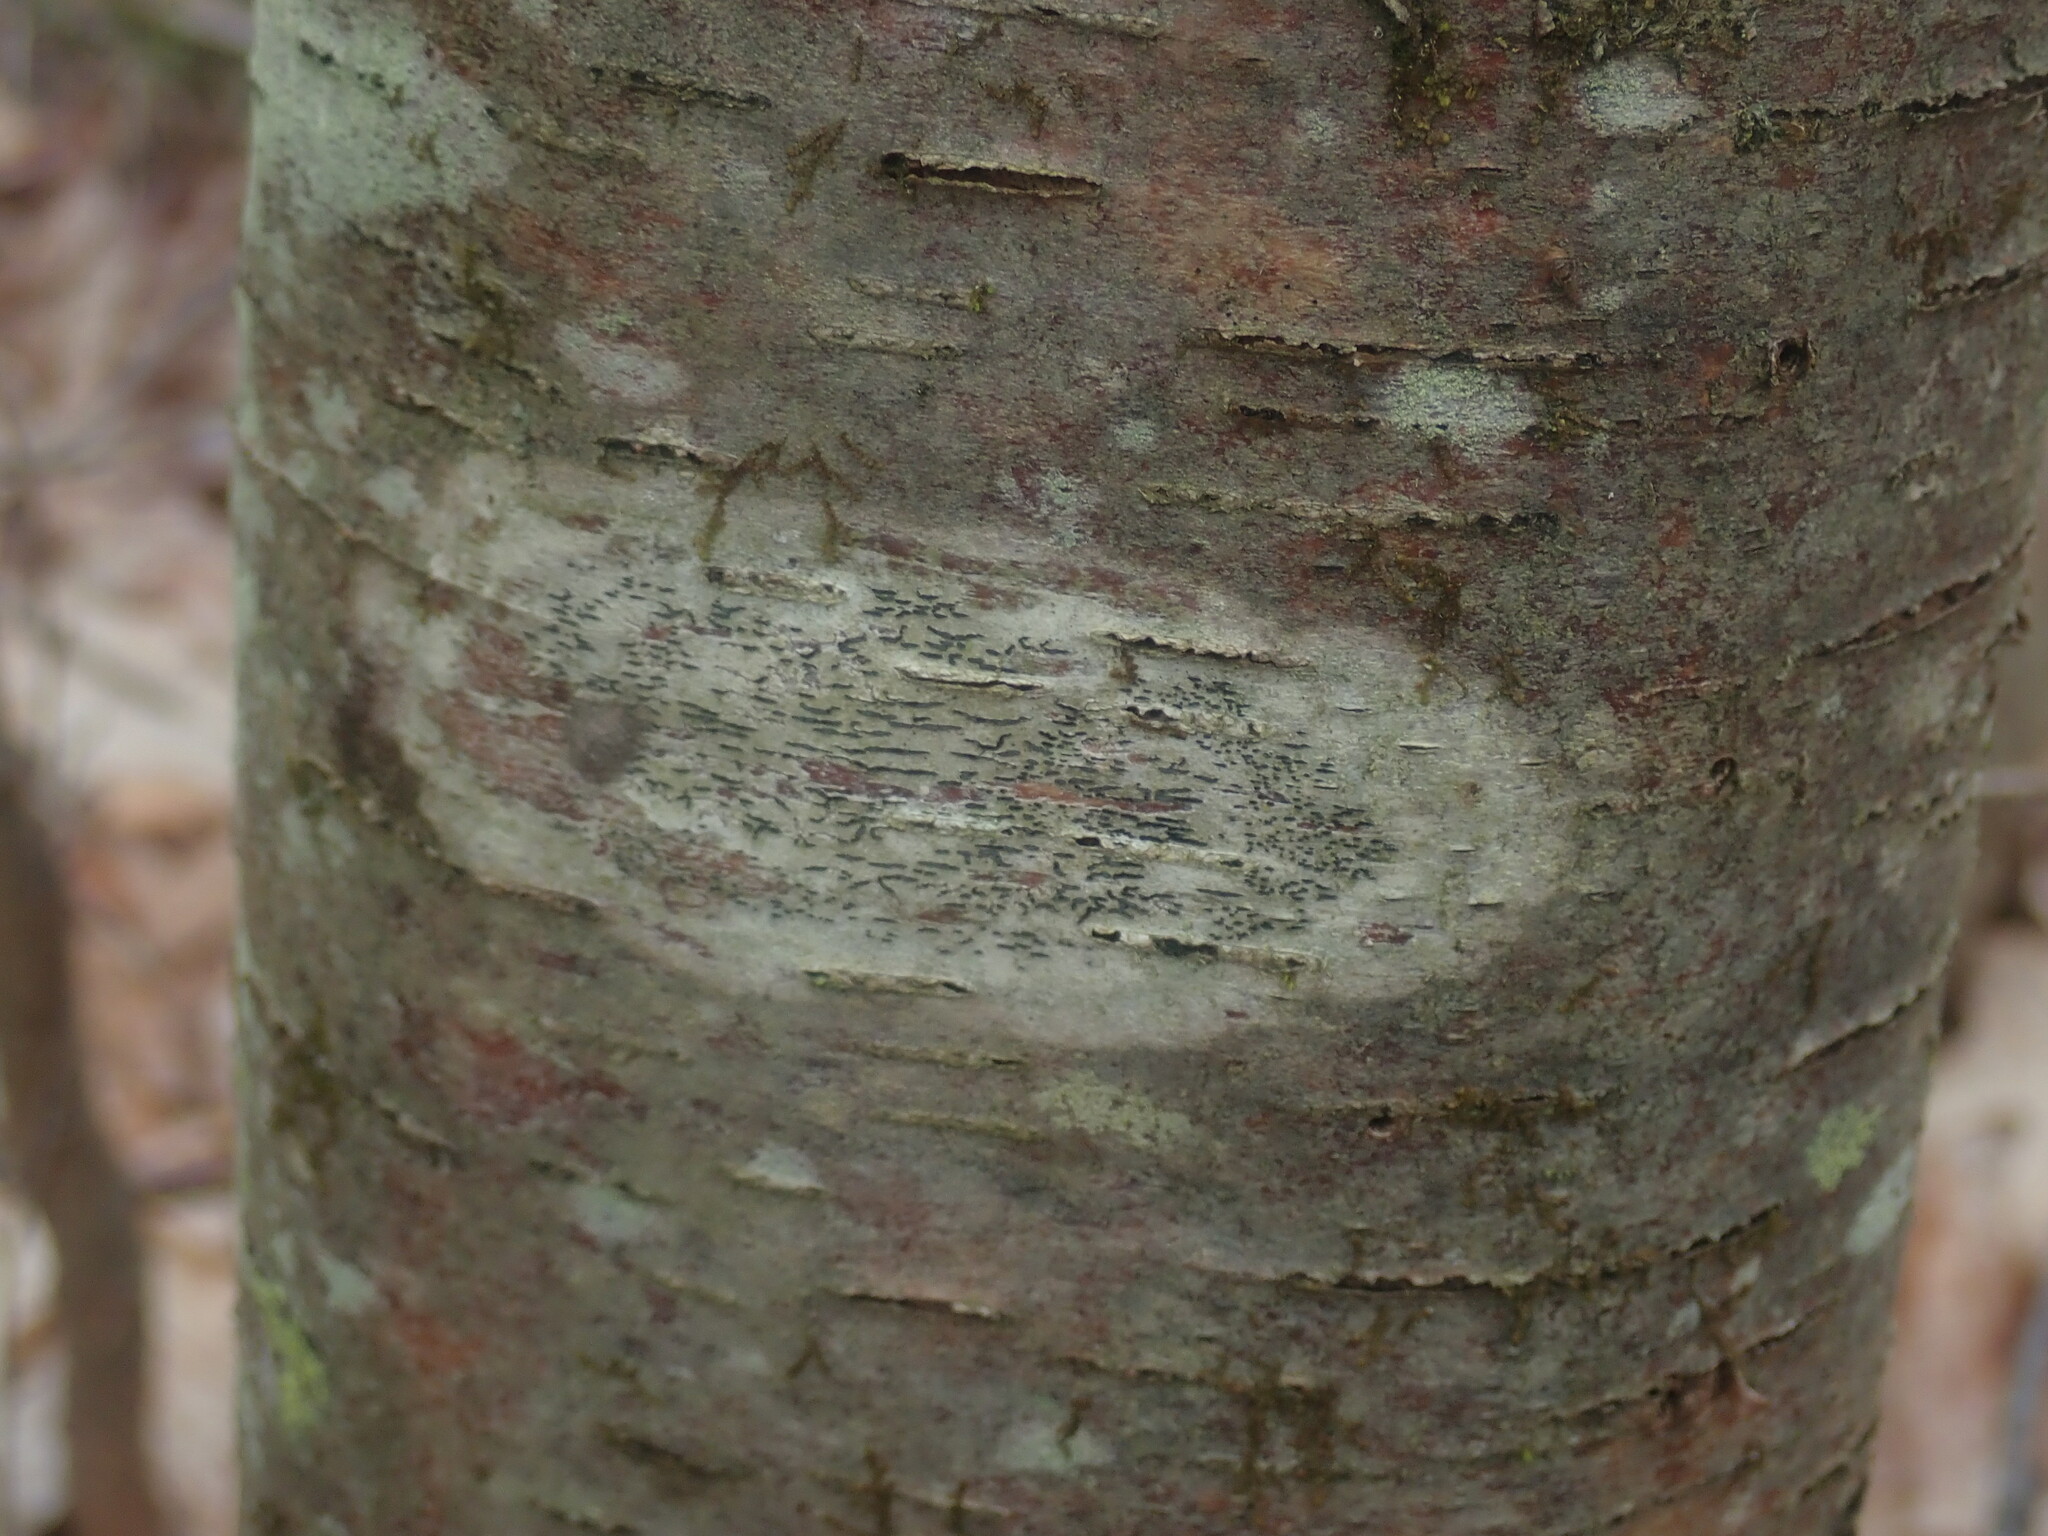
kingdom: Fungi
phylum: Ascomycota
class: Lecanoromycetes
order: Ostropales
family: Graphidaceae
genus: Graphis
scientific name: Graphis scripta
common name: Script lichen
